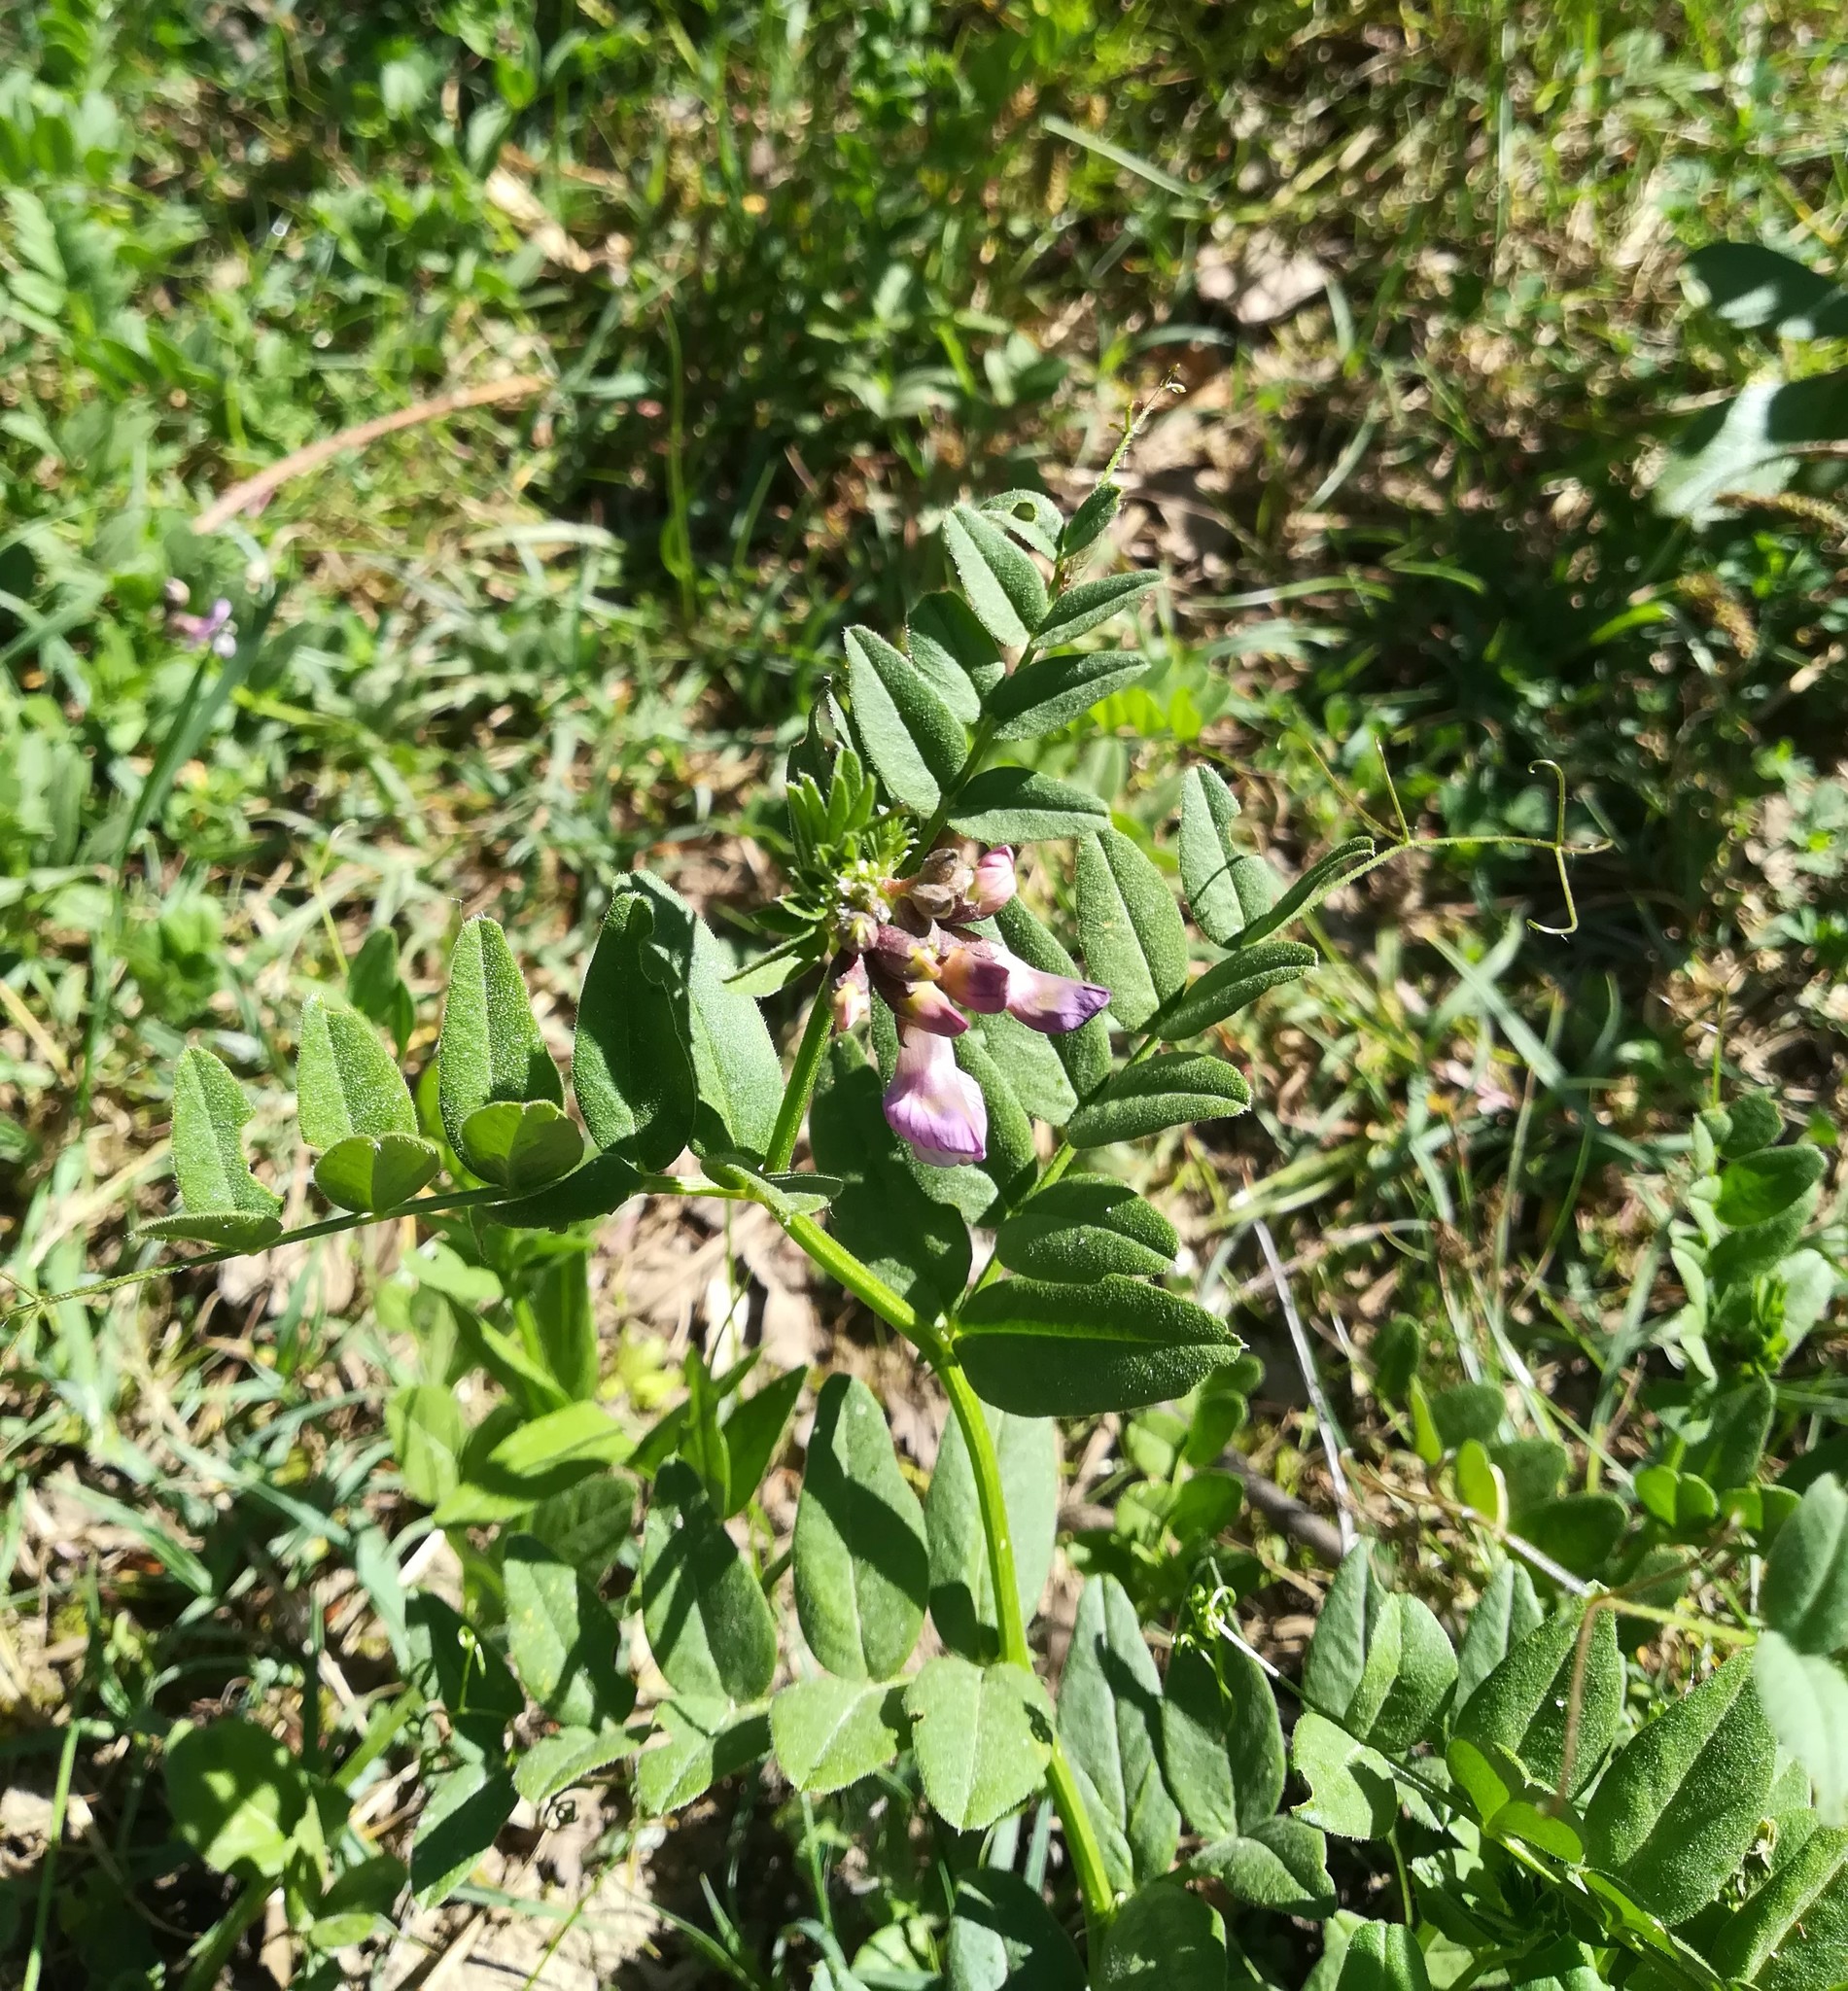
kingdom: Plantae
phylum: Tracheophyta
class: Magnoliopsida
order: Fabales
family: Fabaceae
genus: Vicia
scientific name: Vicia sepium
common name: Bush vetch
